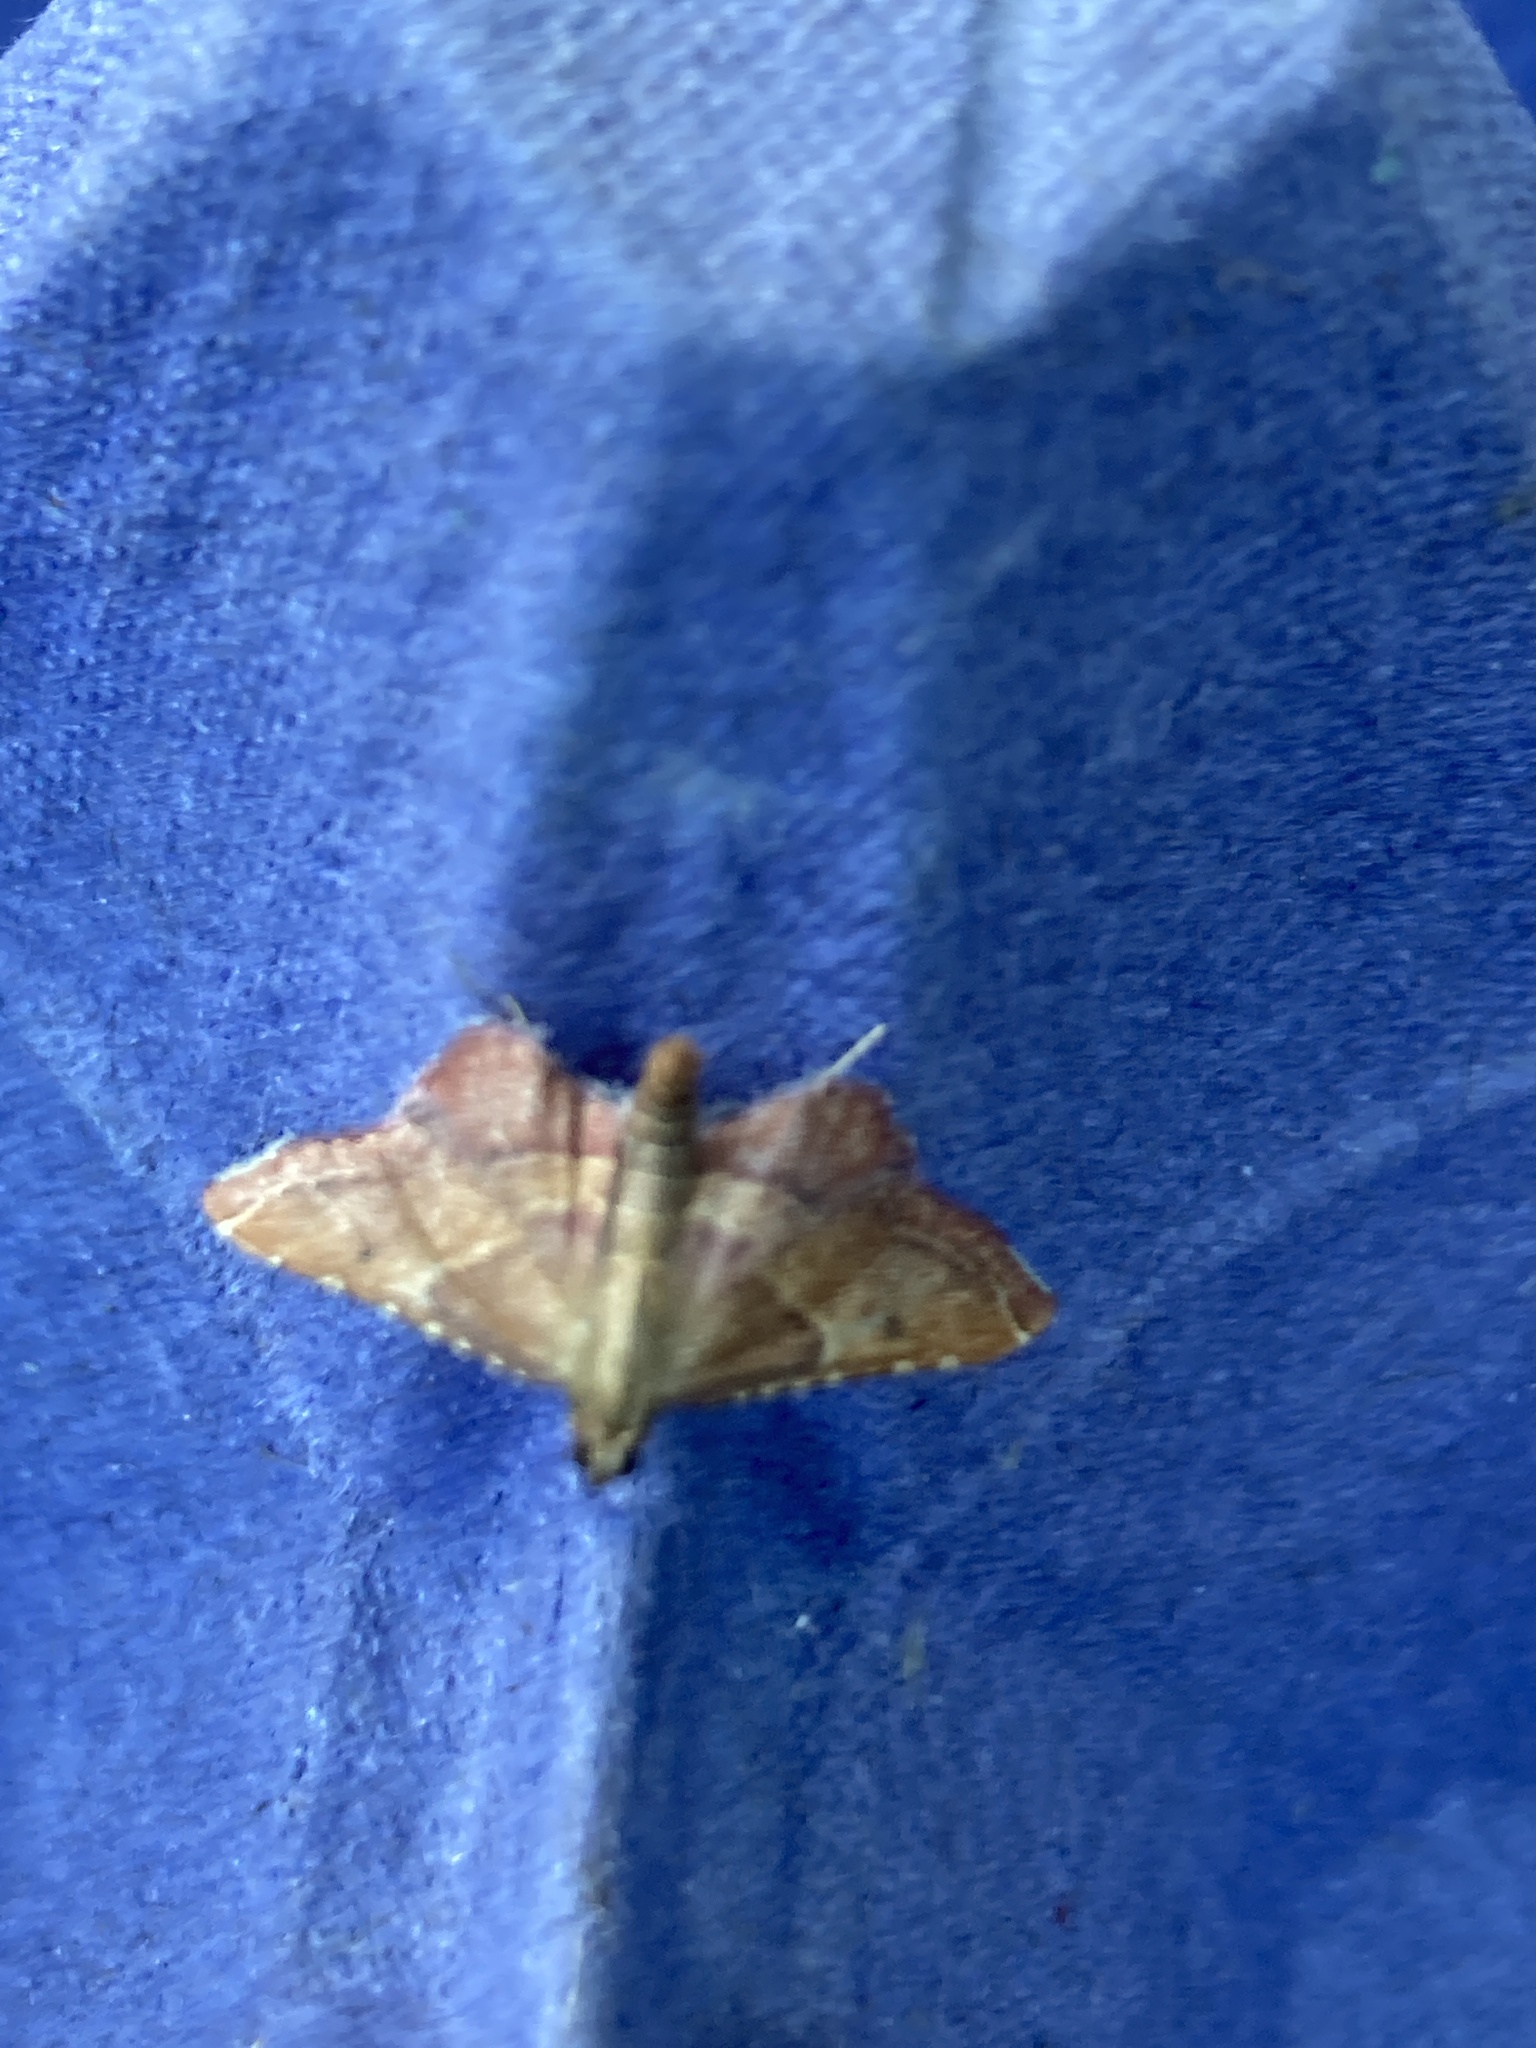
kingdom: Animalia
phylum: Arthropoda
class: Insecta
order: Lepidoptera
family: Pyralidae
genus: Endotricha
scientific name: Endotricha flammealis
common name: Rosy tabby
